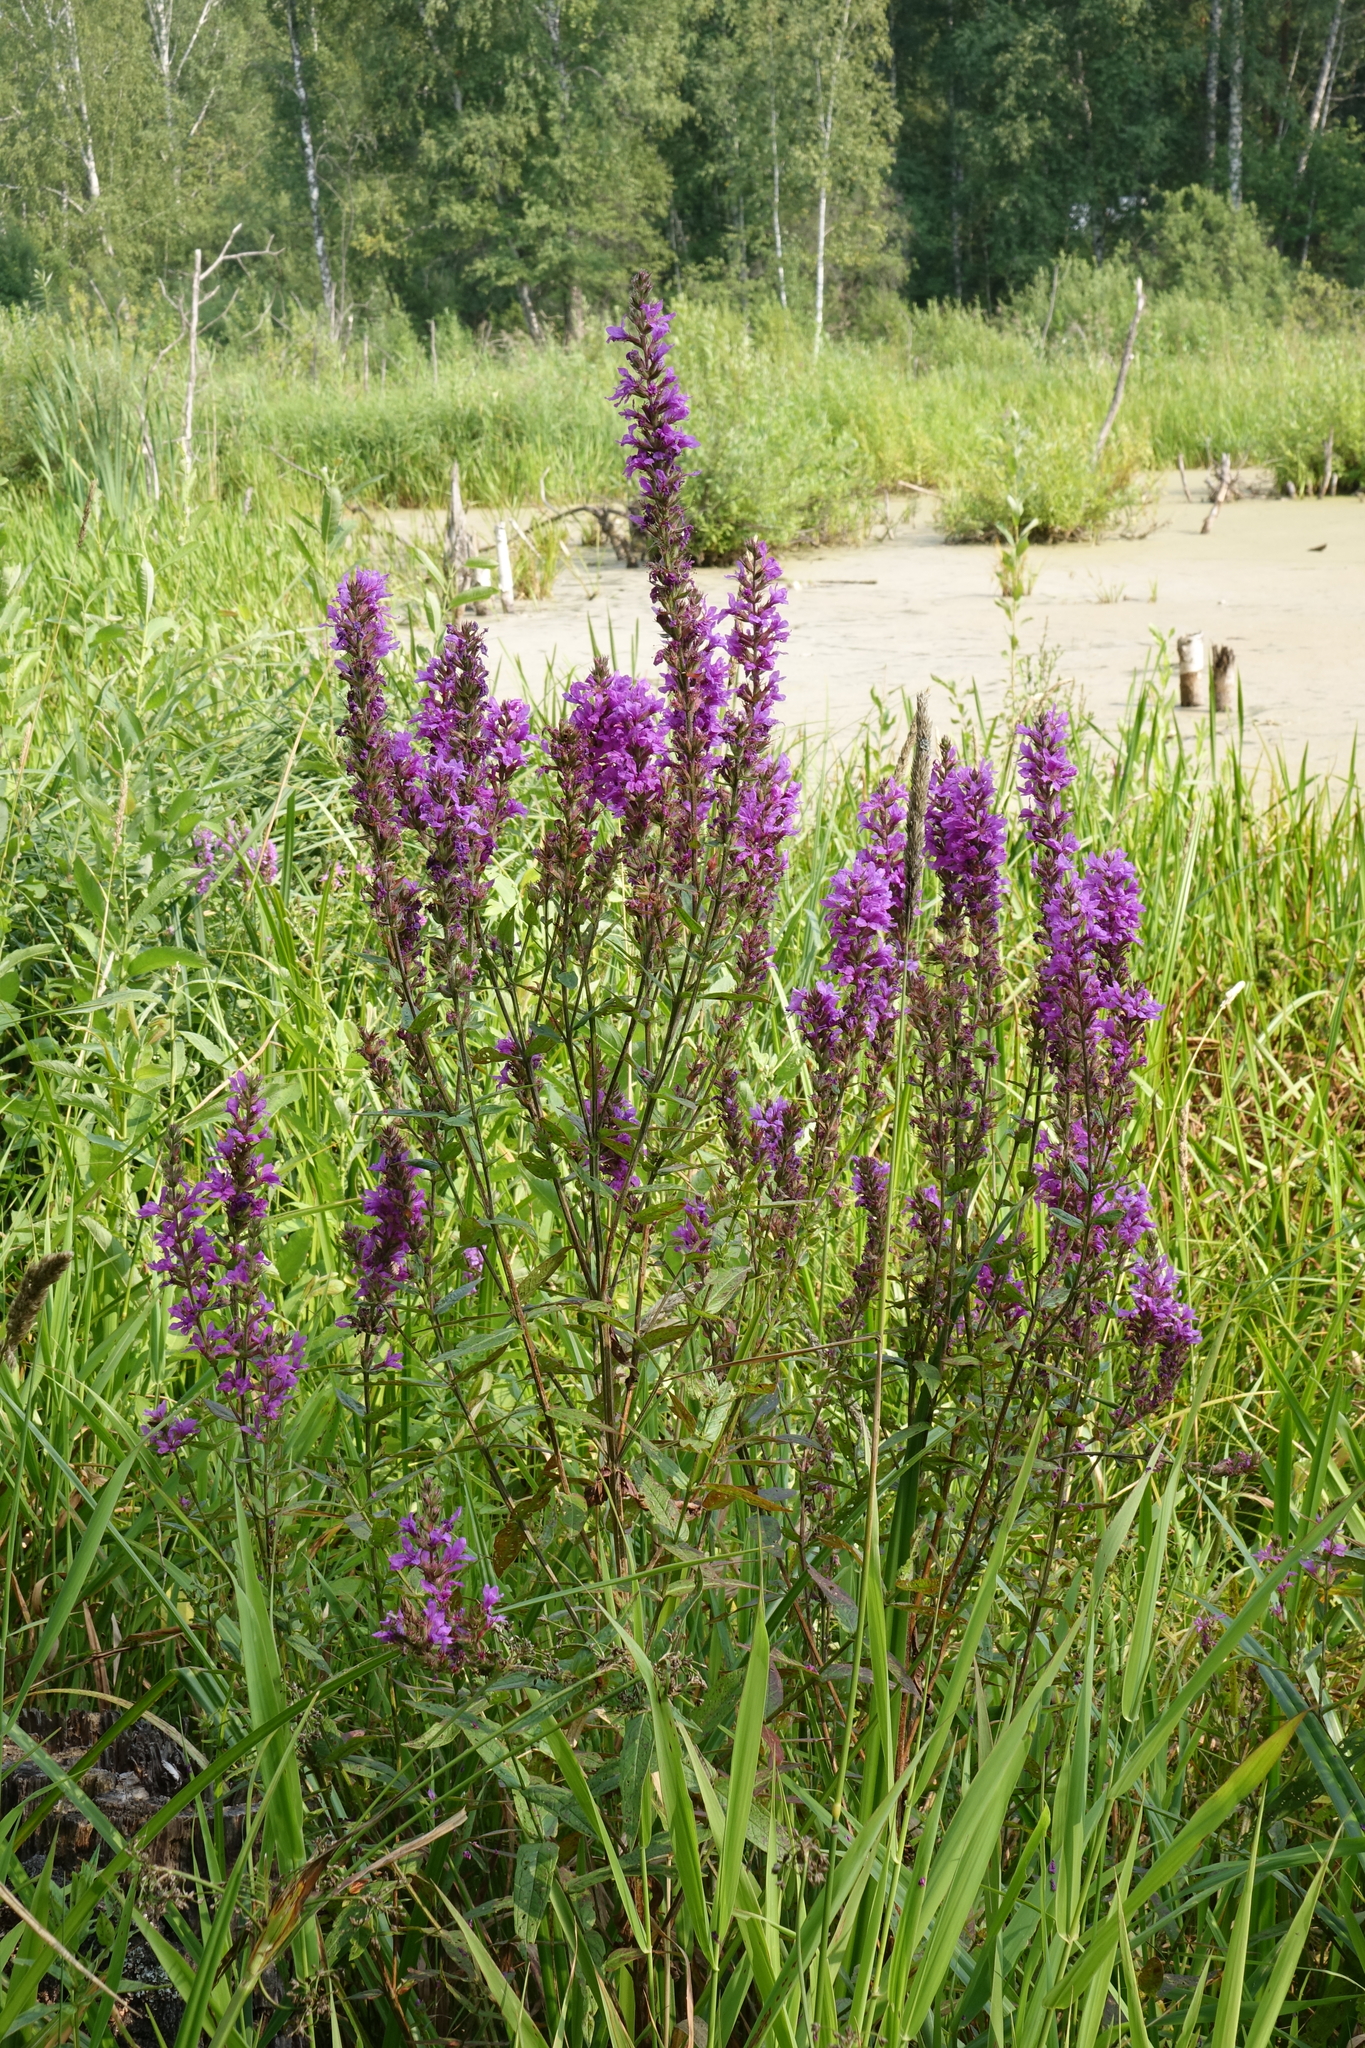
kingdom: Plantae
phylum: Tracheophyta
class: Magnoliopsida
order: Myrtales
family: Lythraceae
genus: Lythrum
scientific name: Lythrum salicaria
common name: Purple loosestrife
